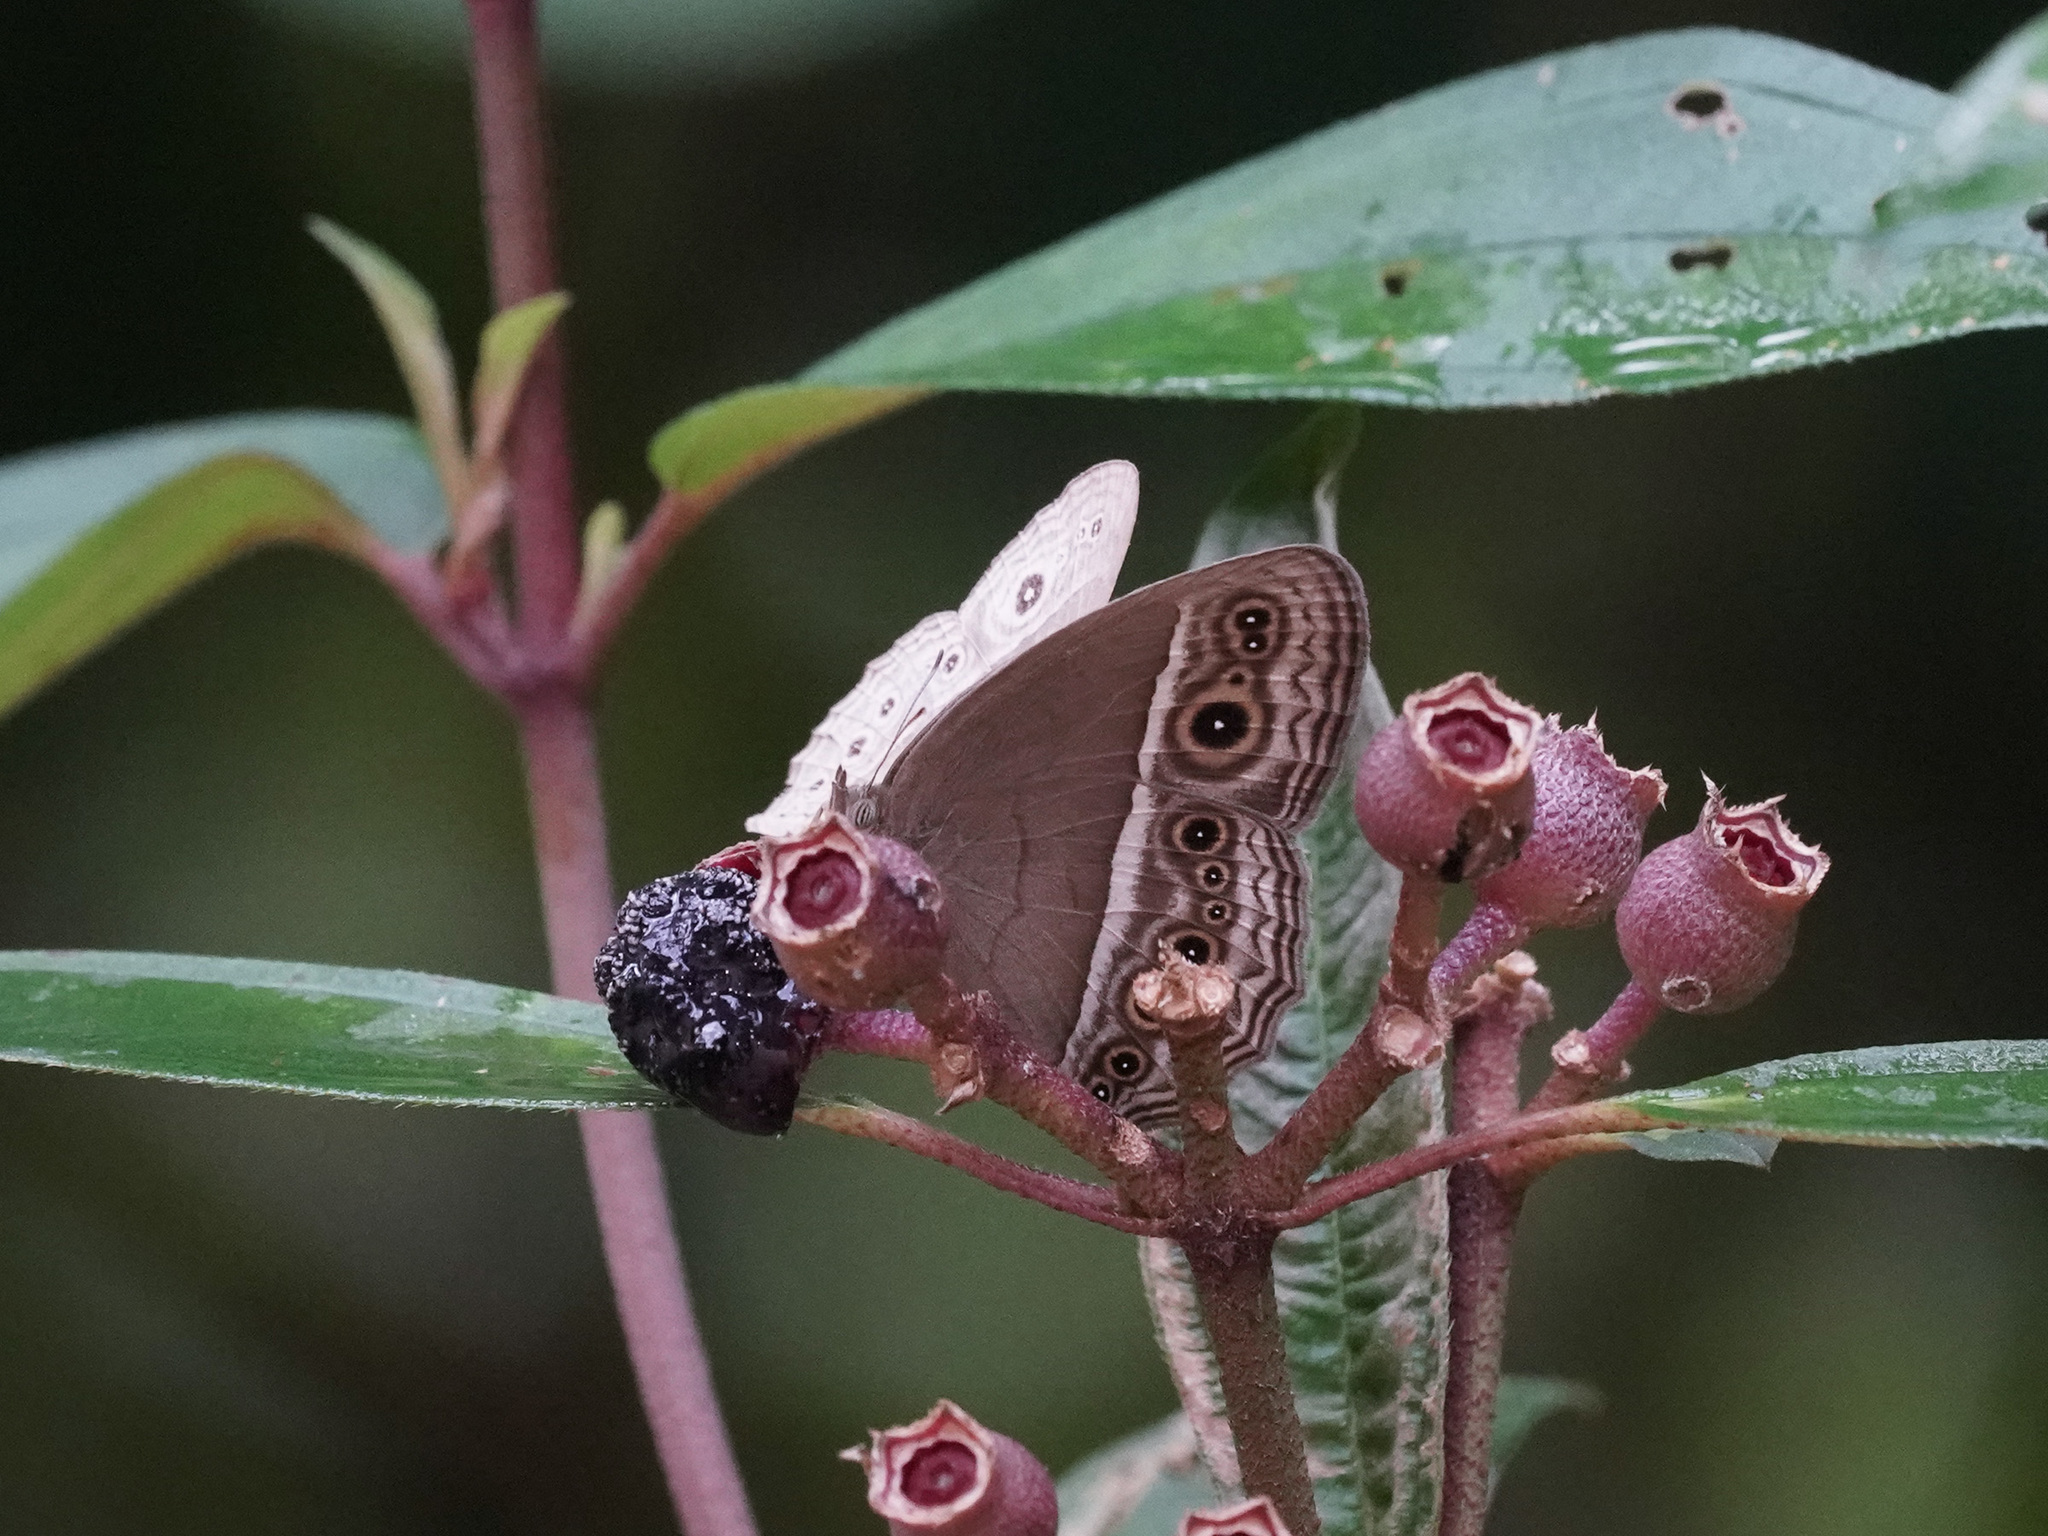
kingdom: Animalia
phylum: Arthropoda
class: Insecta
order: Lepidoptera
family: Nymphalidae
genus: Mycalesis
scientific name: Mycalesis visala
